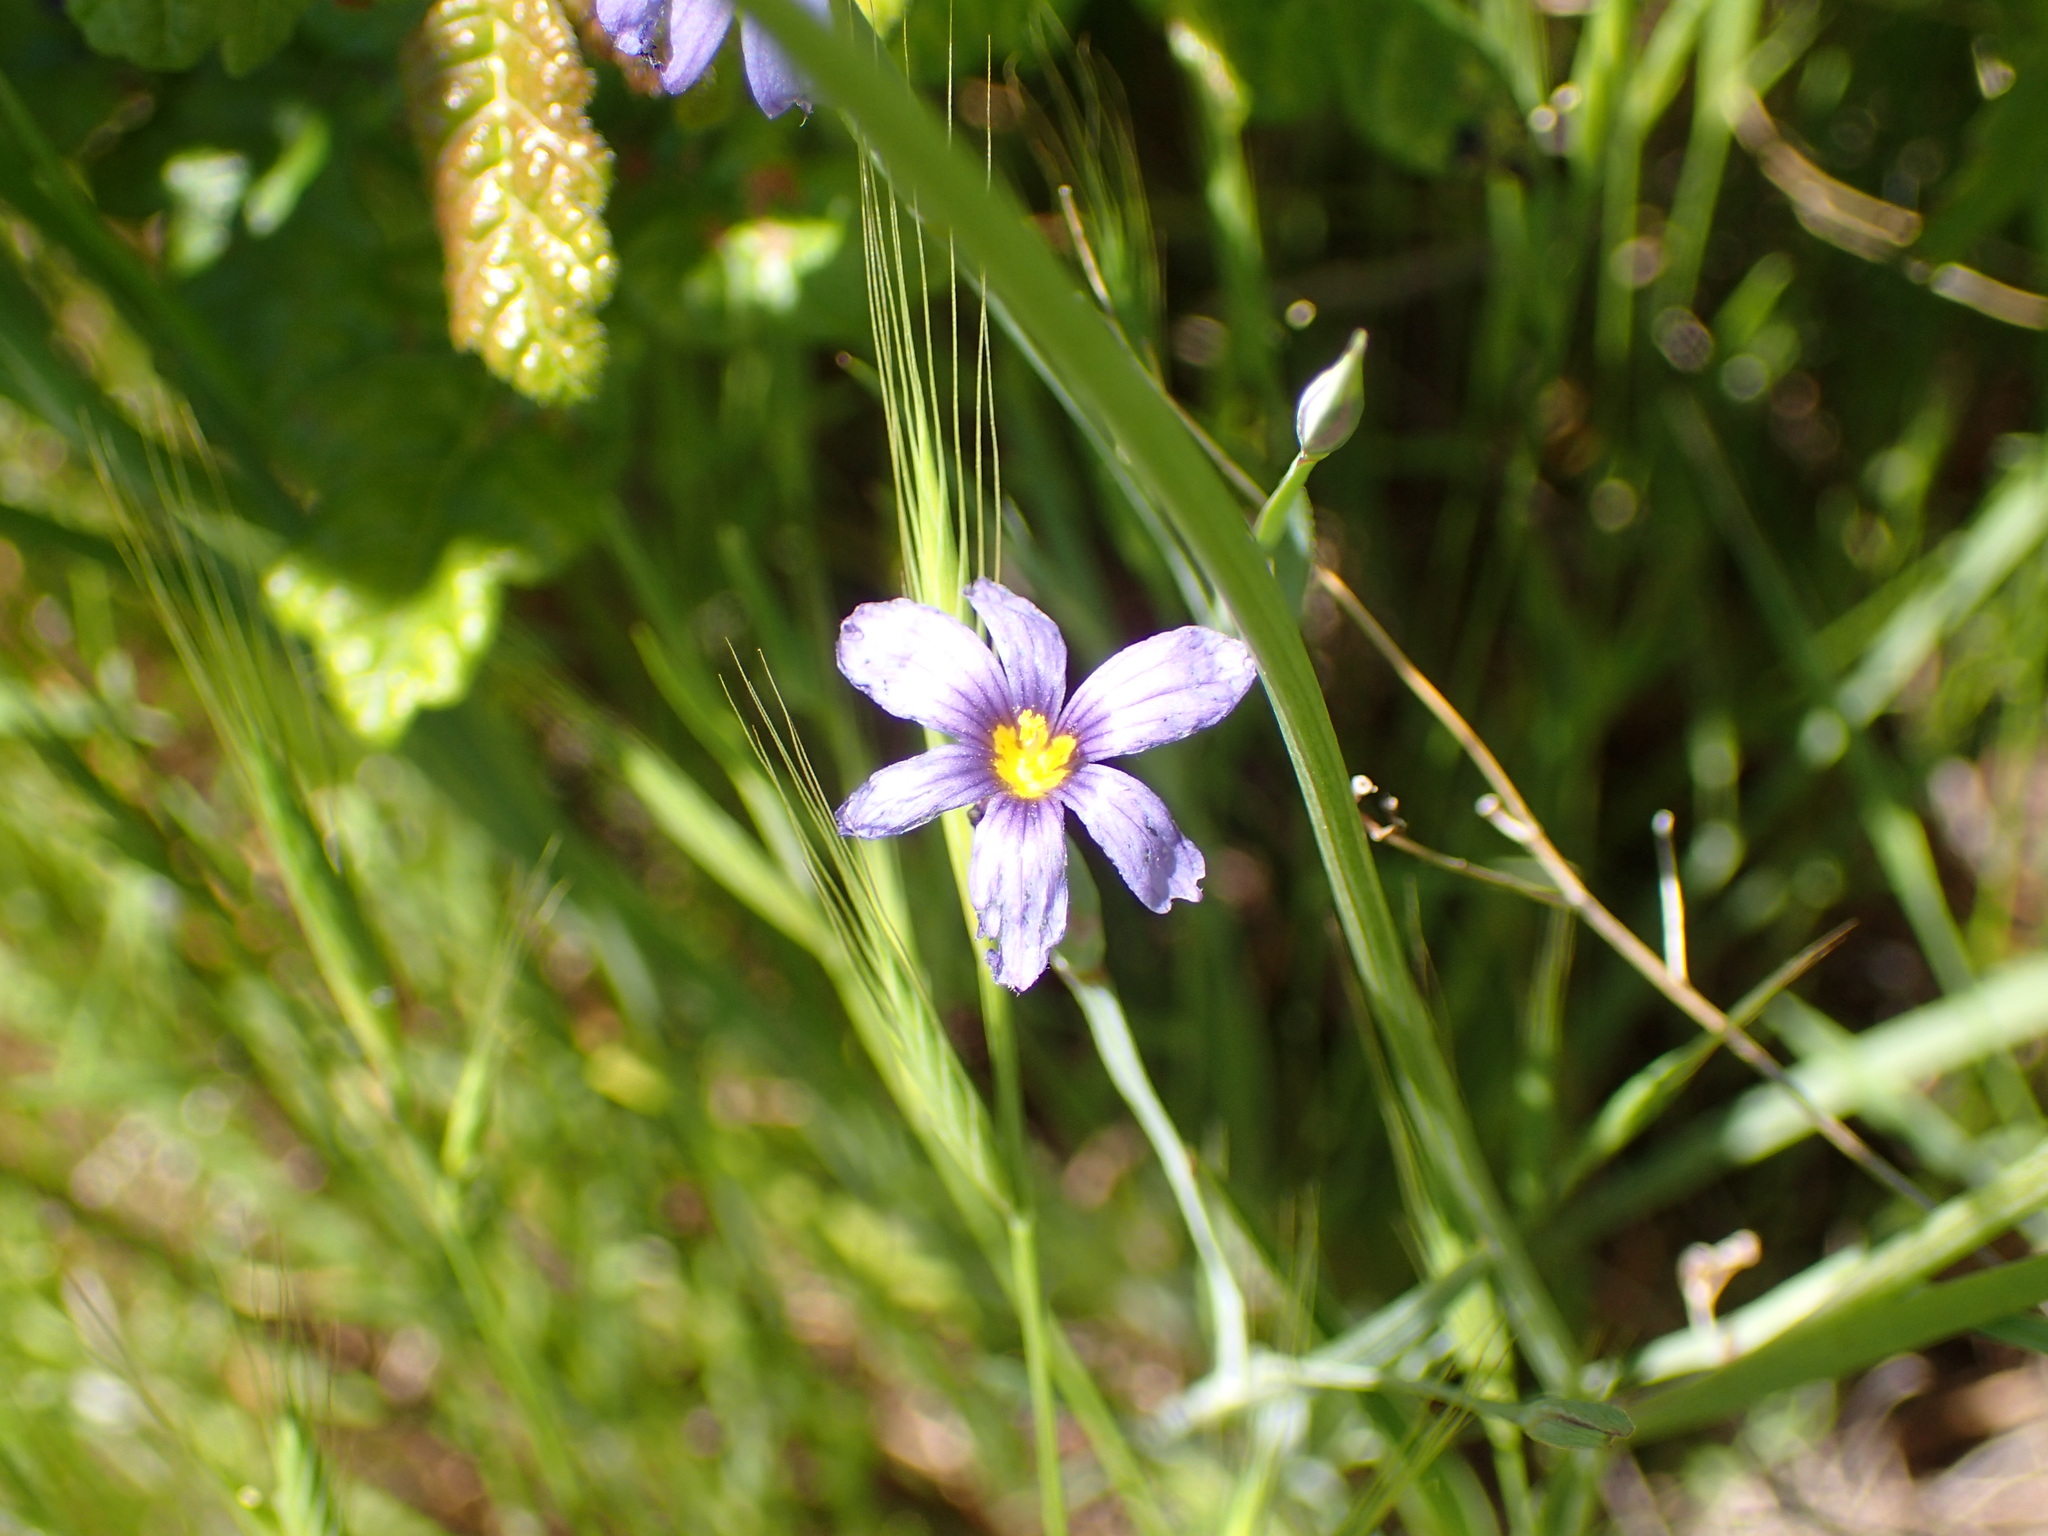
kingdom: Plantae
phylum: Tracheophyta
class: Liliopsida
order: Asparagales
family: Iridaceae
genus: Sisyrinchium
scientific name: Sisyrinchium bellum
